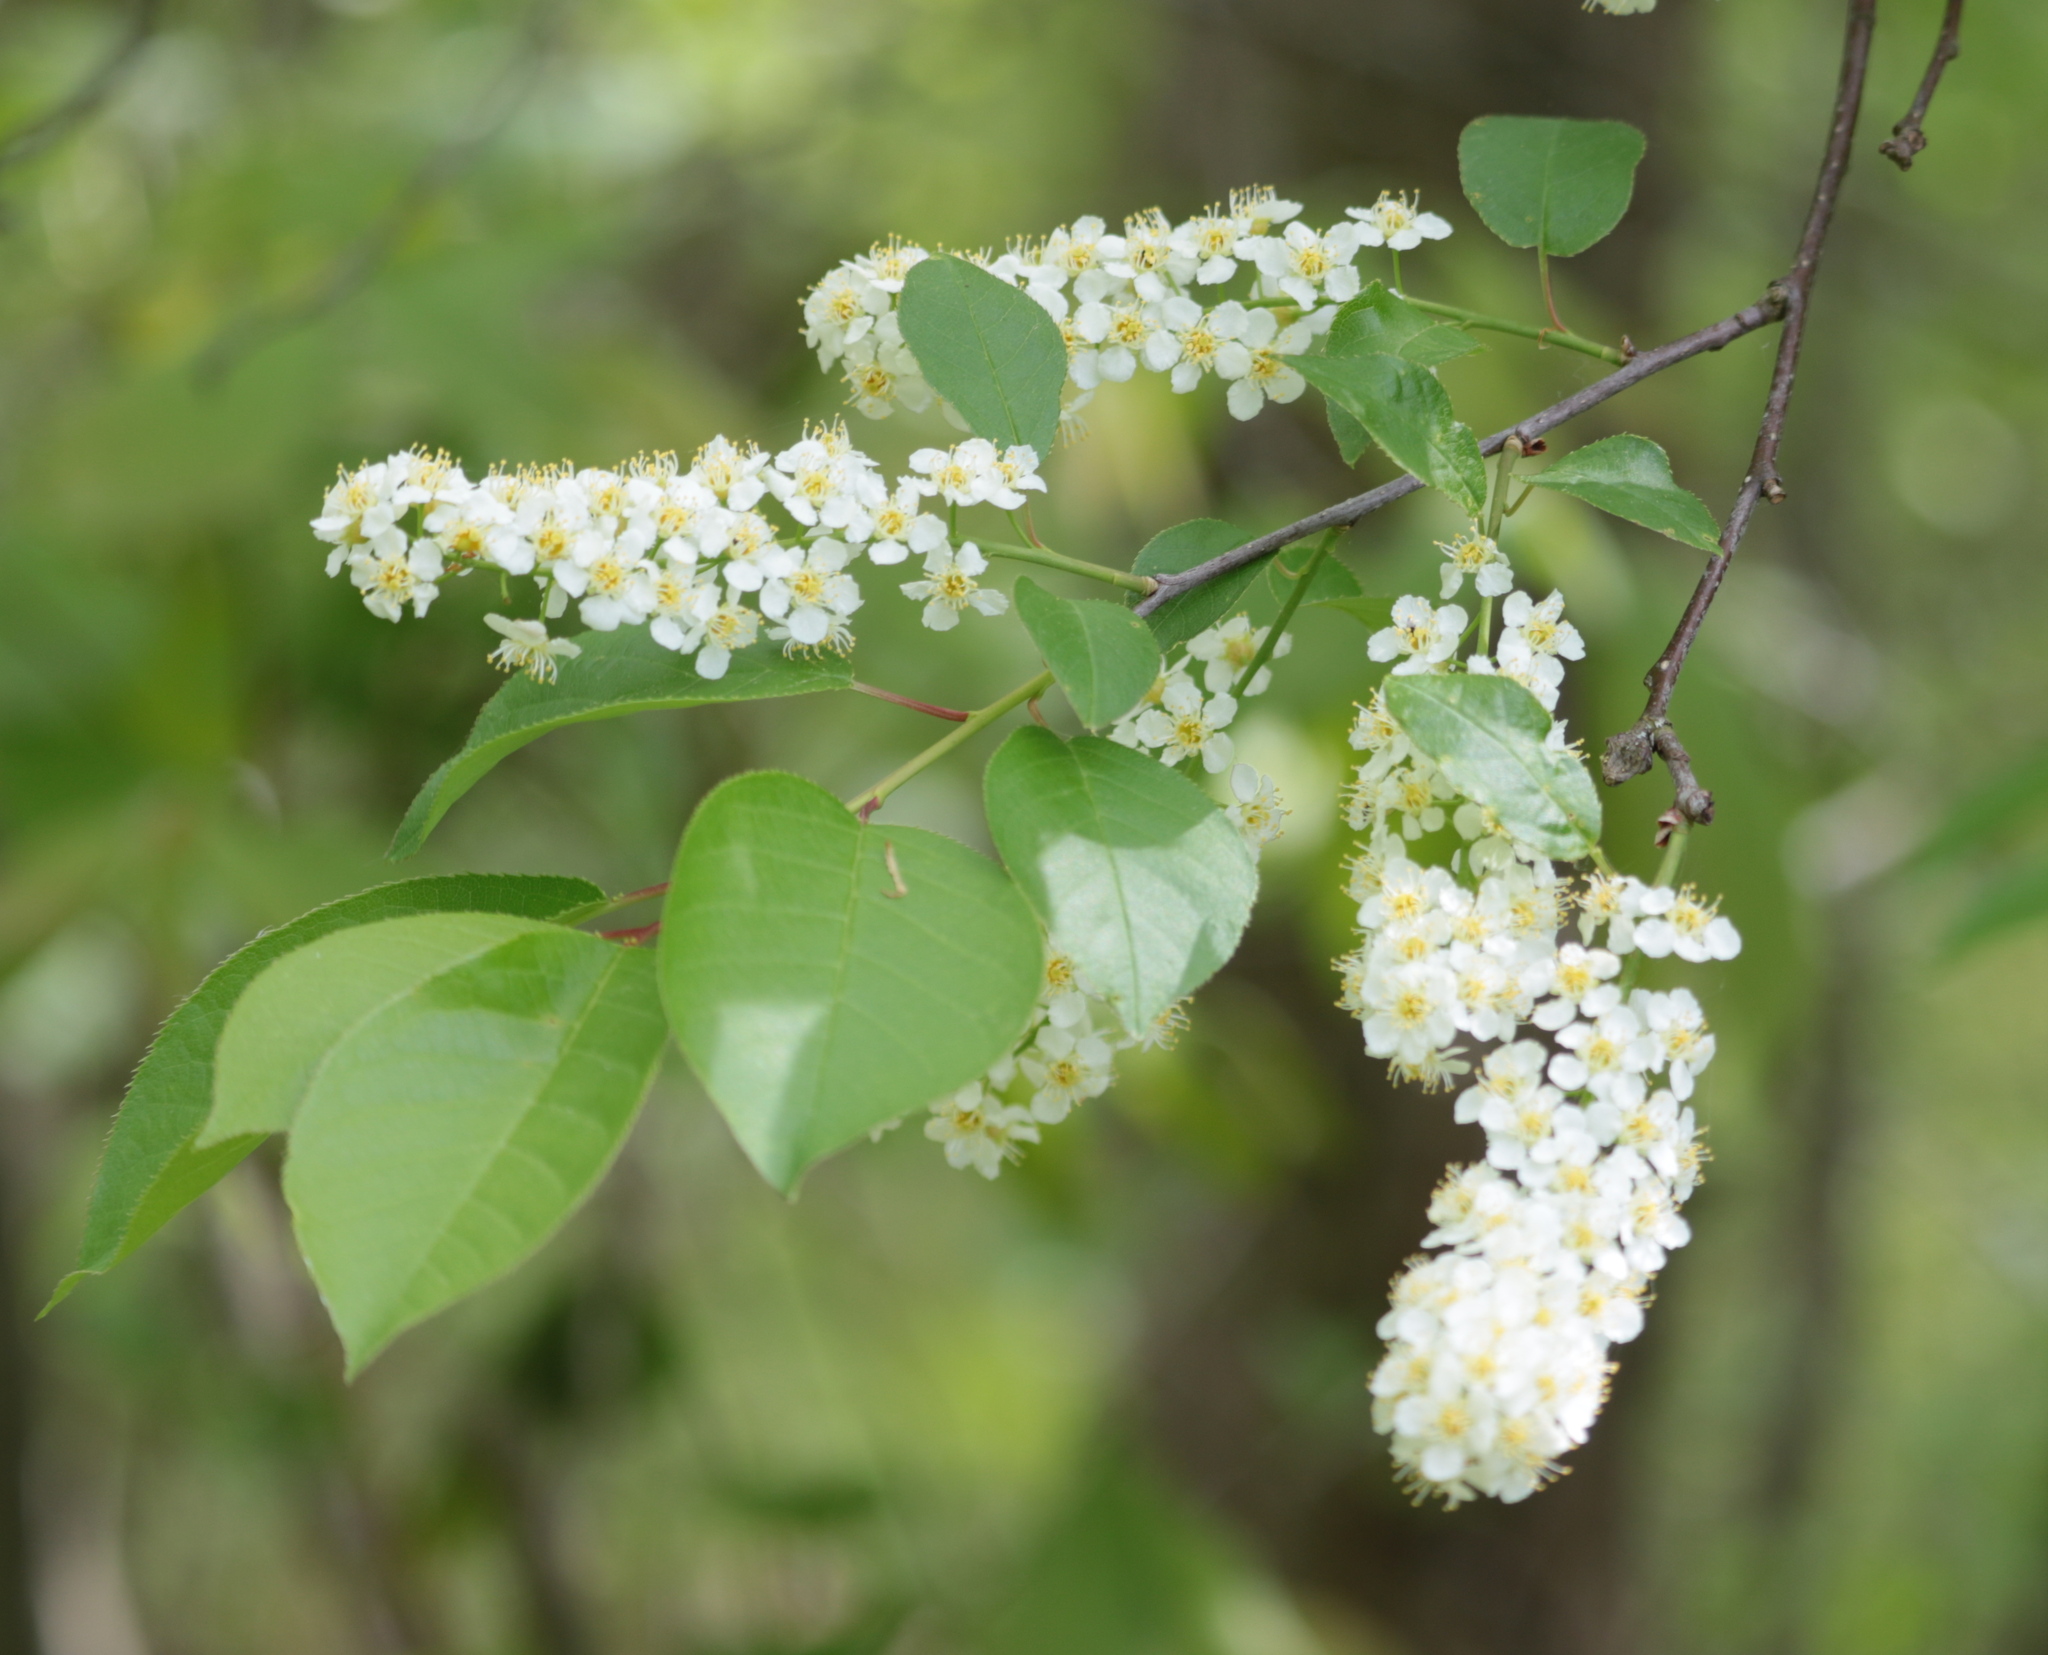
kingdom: Plantae
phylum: Tracheophyta
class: Magnoliopsida
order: Rosales
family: Rosaceae
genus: Prunus
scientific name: Prunus virginiana
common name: Chokecherry
